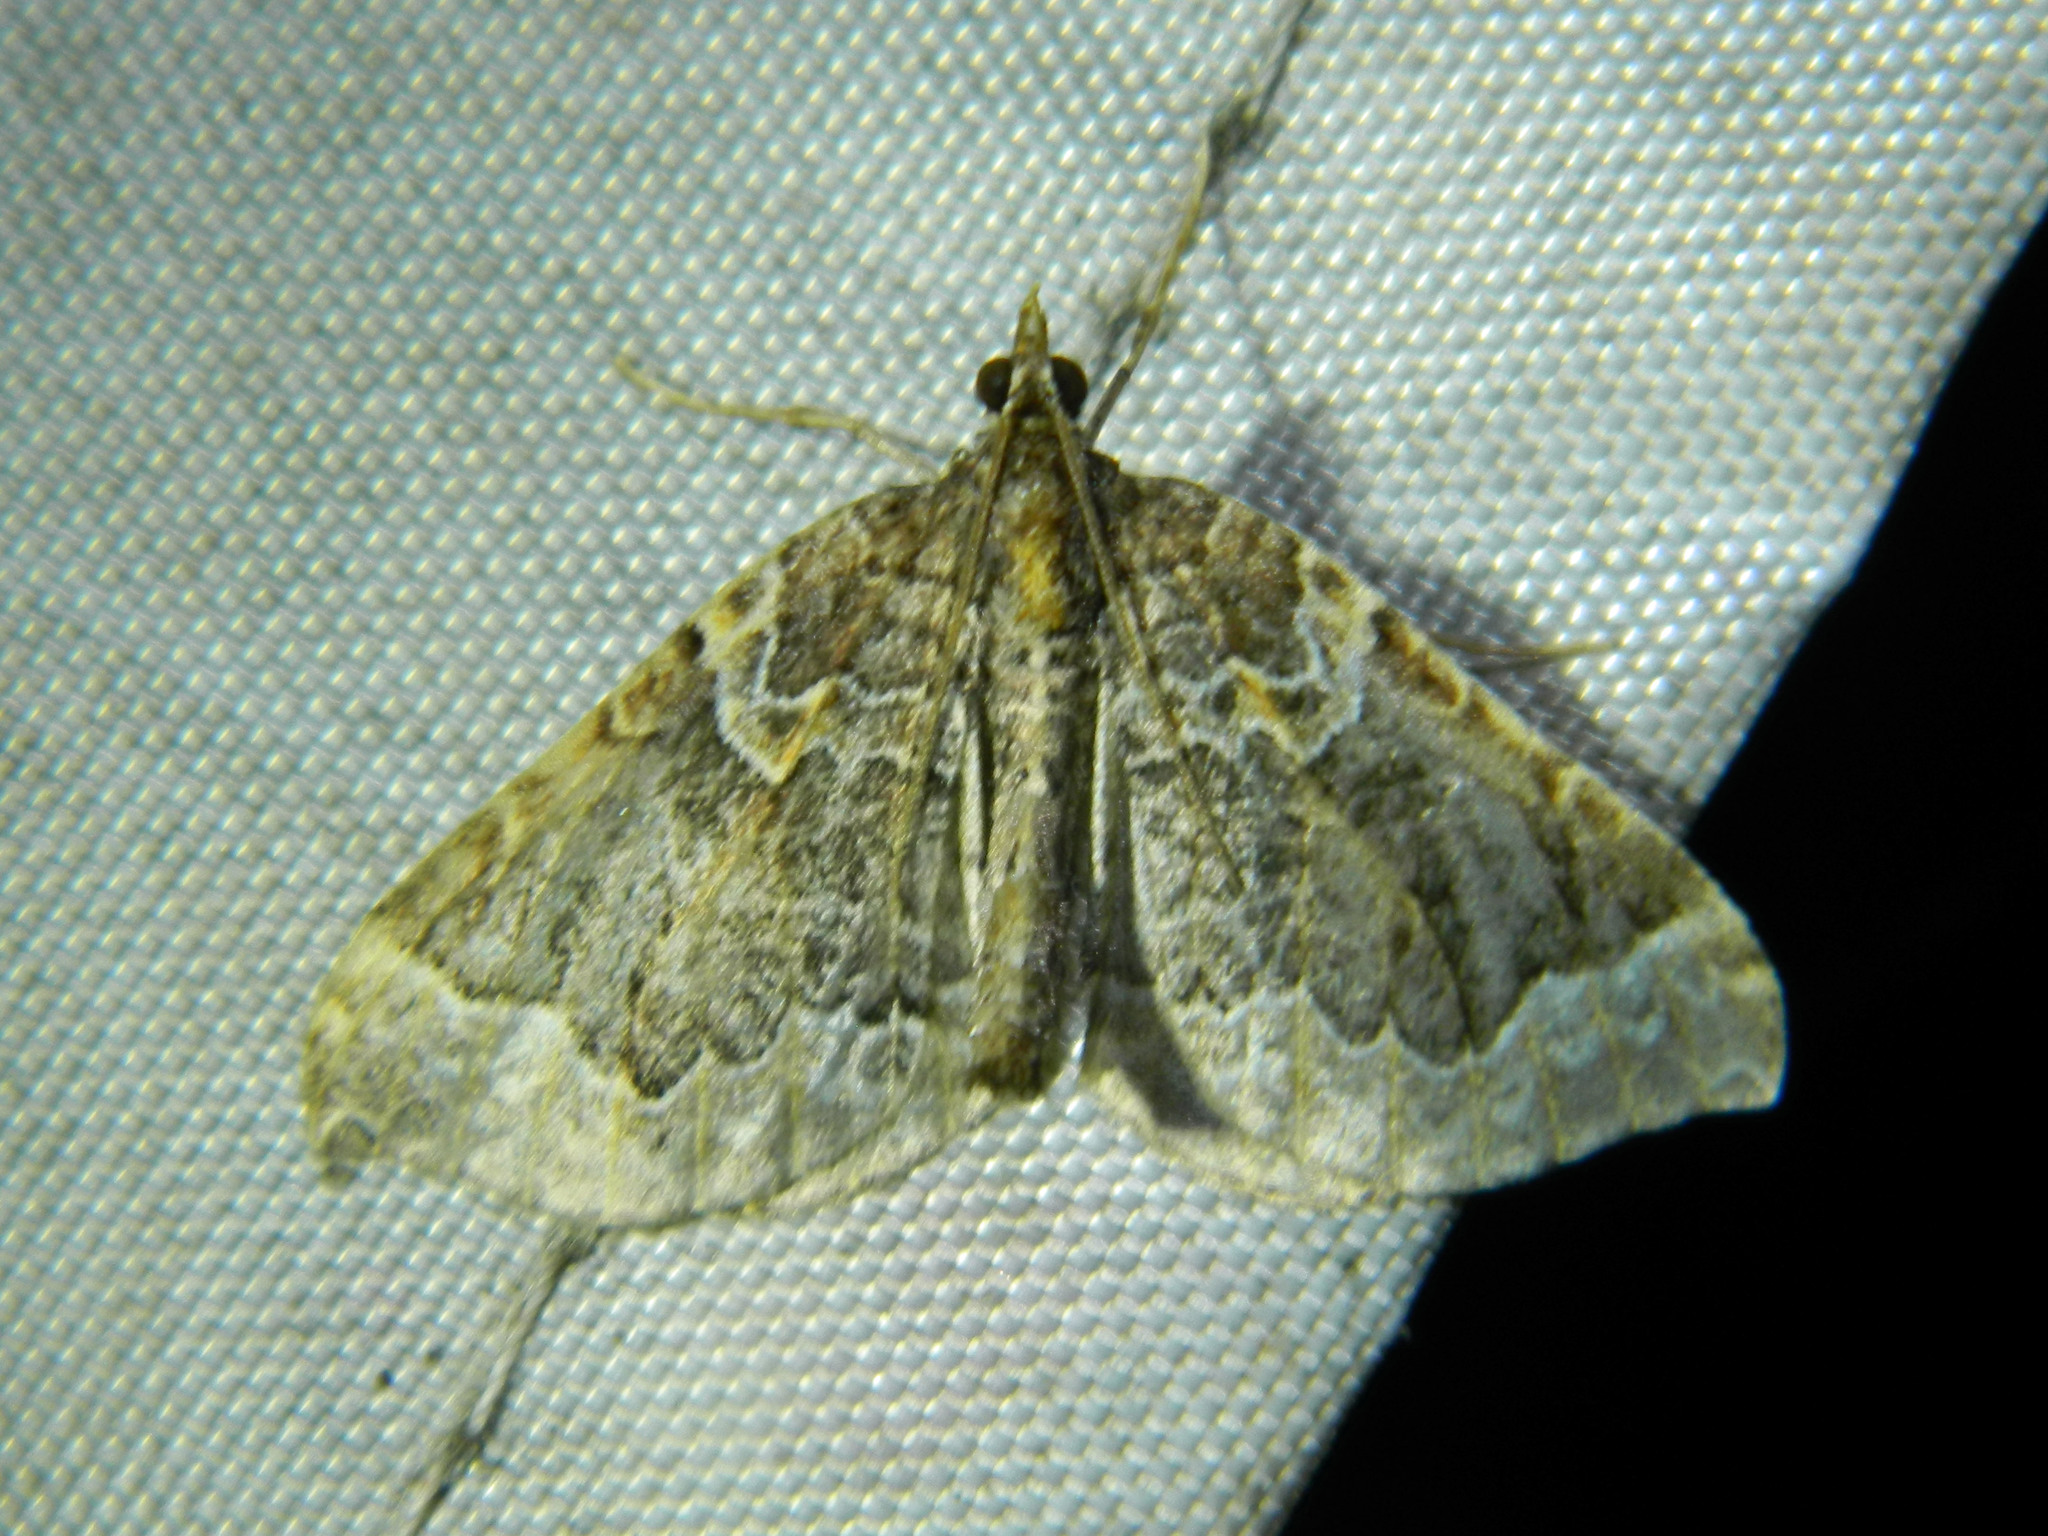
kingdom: Animalia
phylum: Arthropoda
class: Insecta
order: Lepidoptera
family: Geometridae
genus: Eulithis
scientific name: Eulithis flavibrunneata
